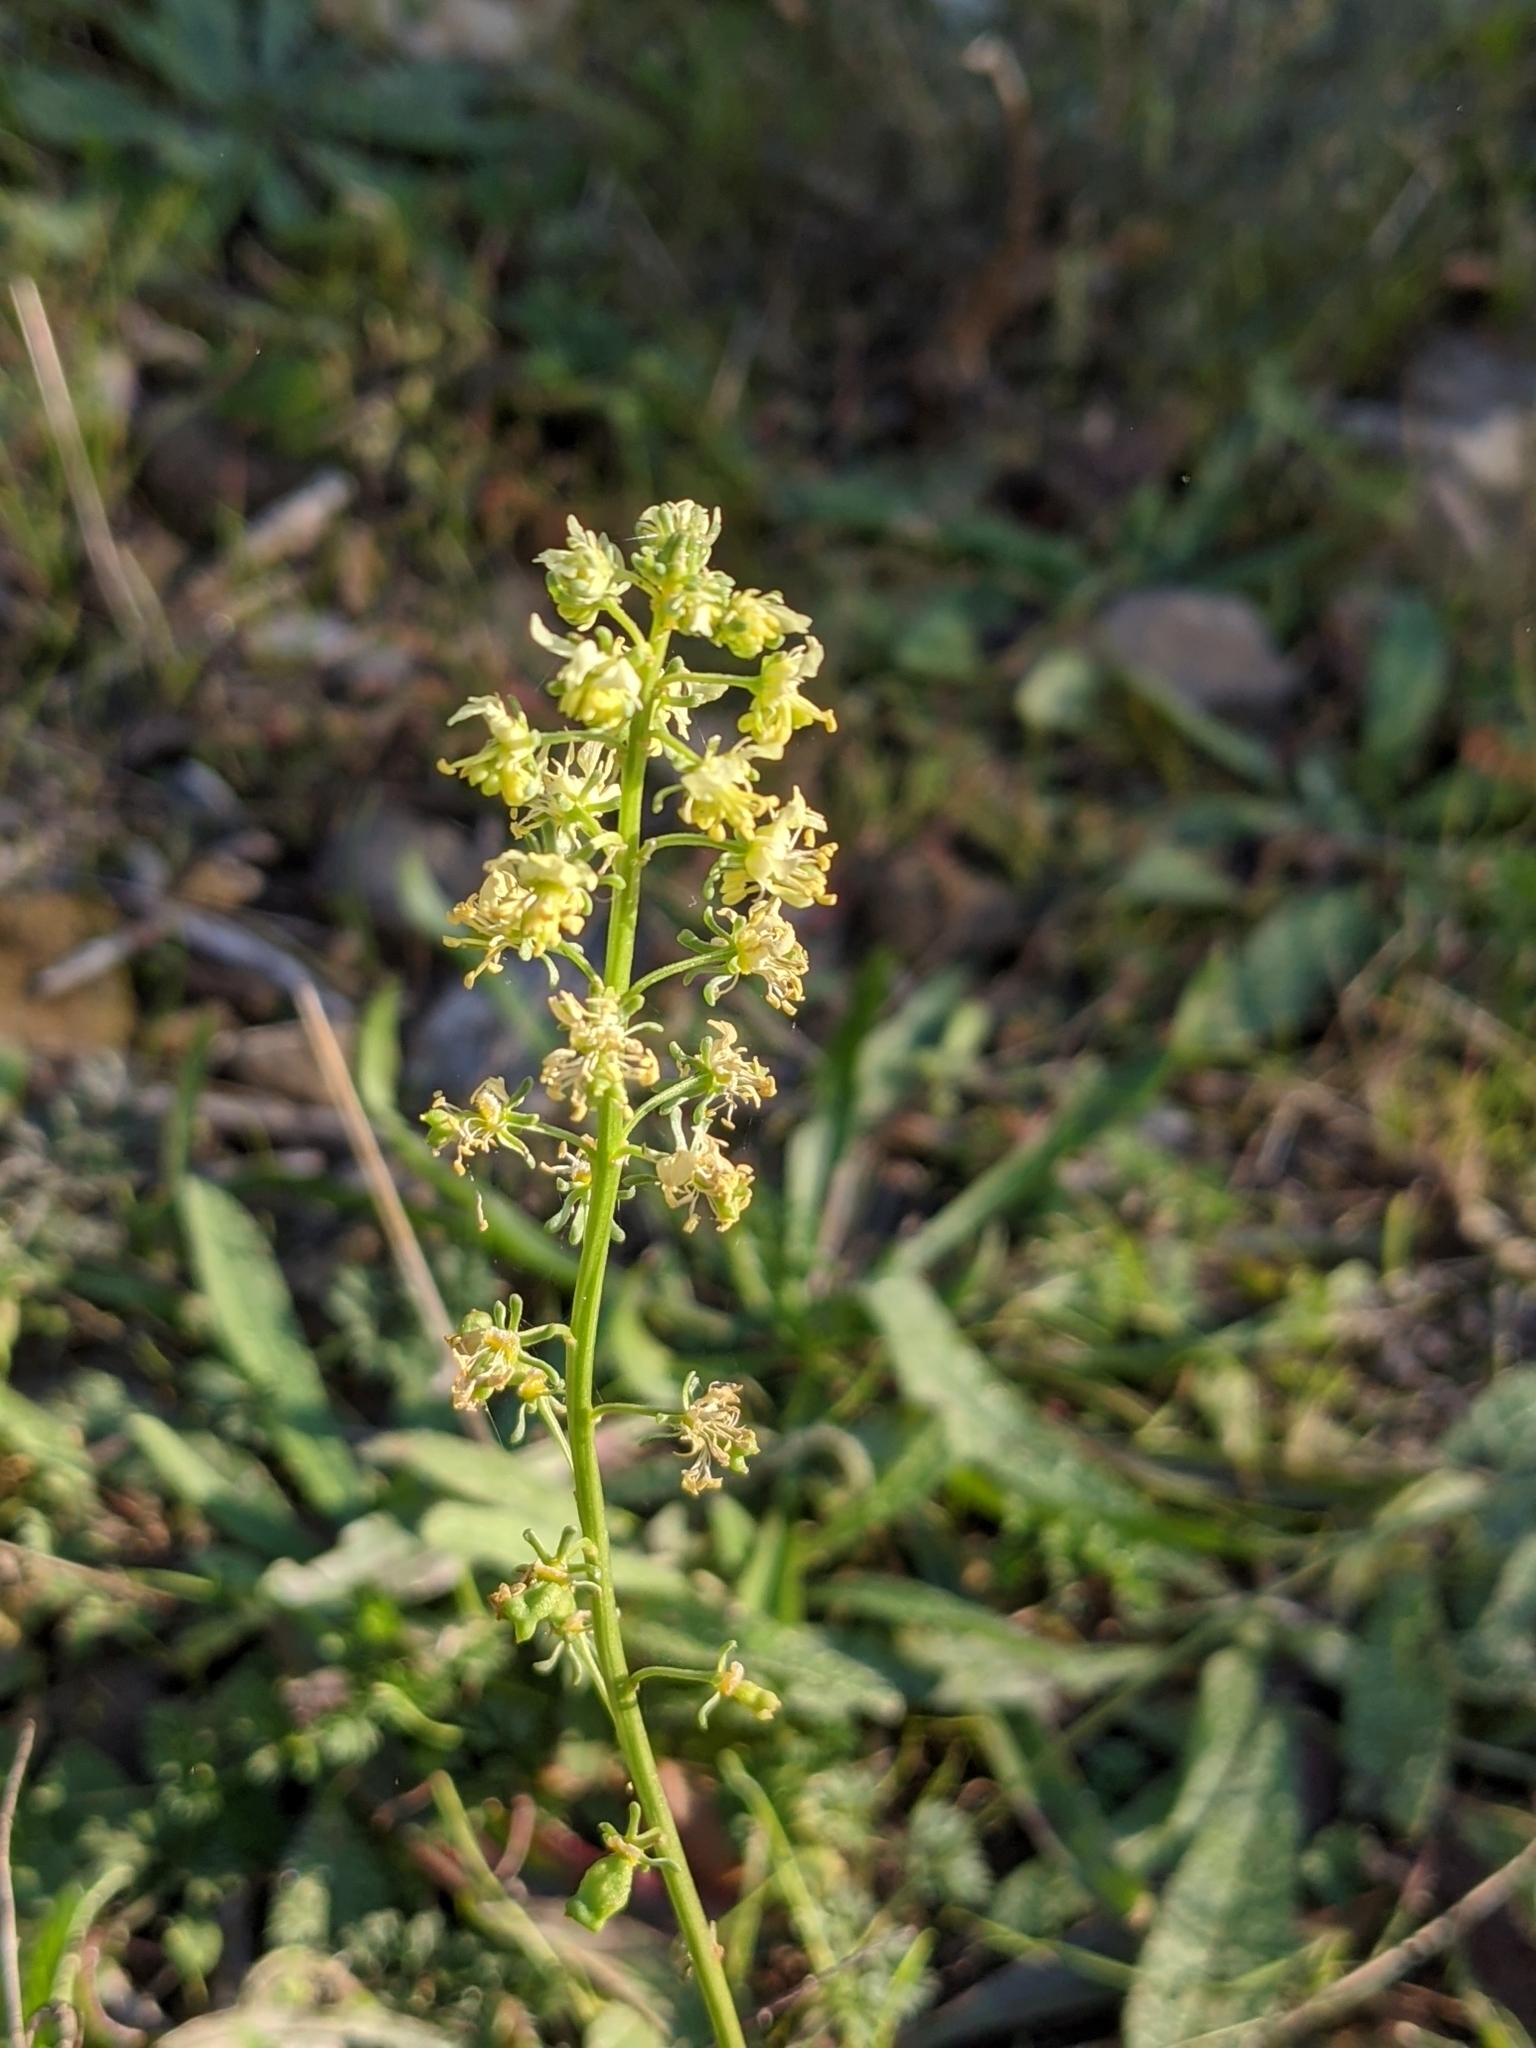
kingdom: Plantae
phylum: Tracheophyta
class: Magnoliopsida
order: Brassicales
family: Resedaceae
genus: Reseda
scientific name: Reseda lutea
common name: Wild mignonette
